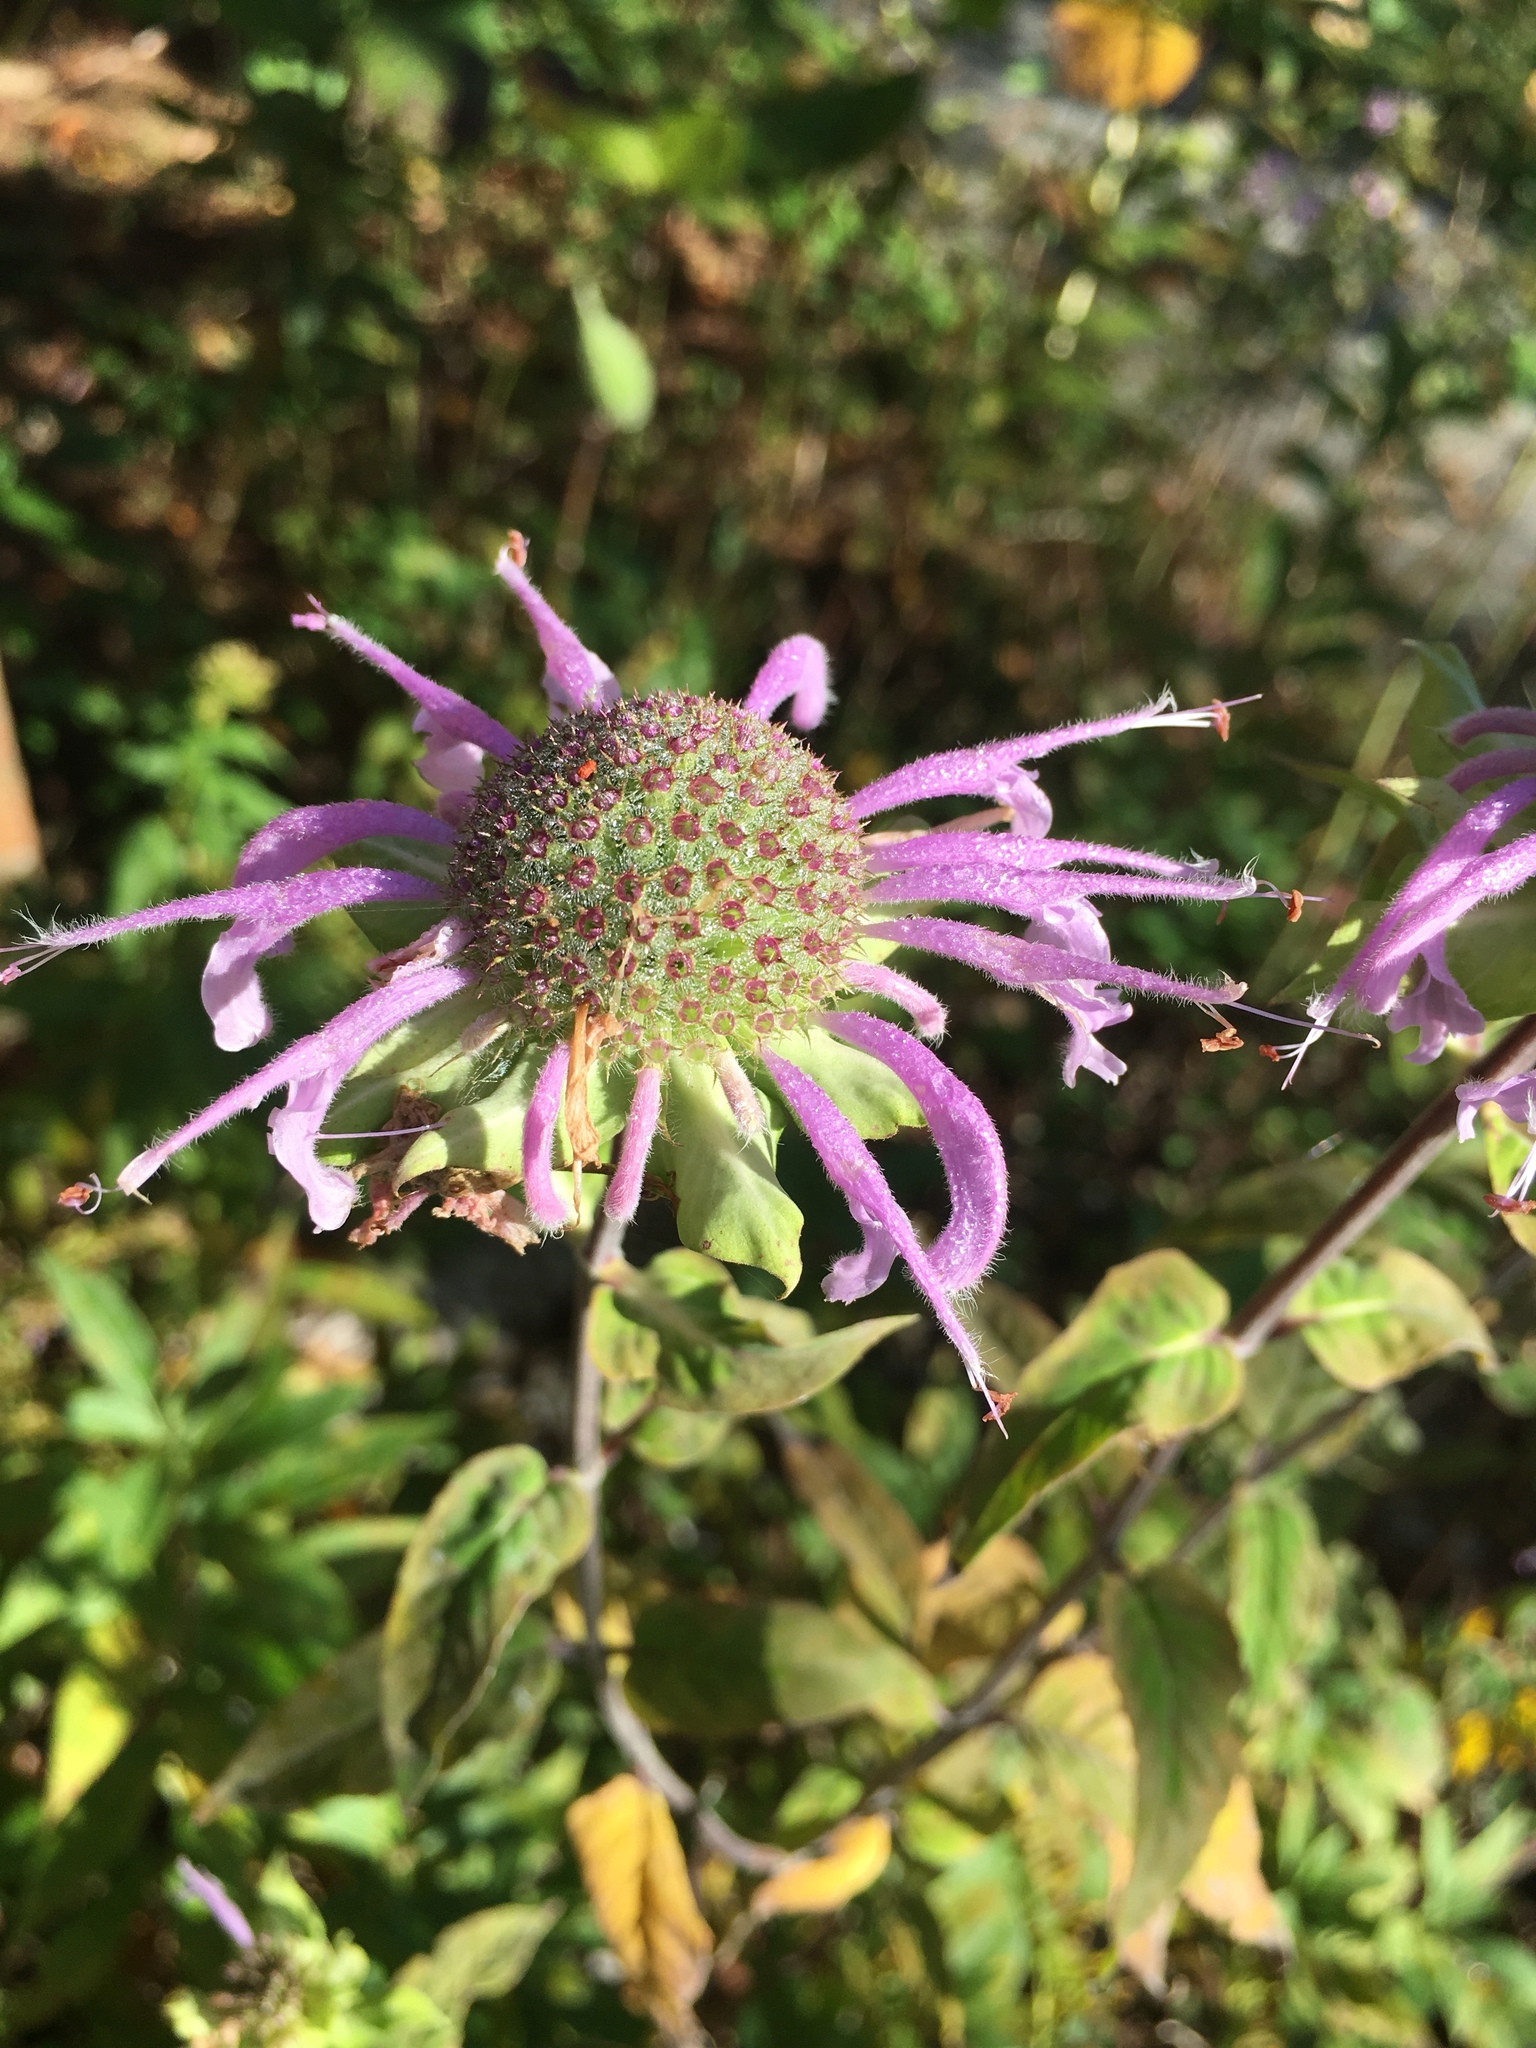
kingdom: Plantae
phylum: Tracheophyta
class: Magnoliopsida
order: Lamiales
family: Lamiaceae
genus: Monarda
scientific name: Monarda fistulosa
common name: Purple beebalm
